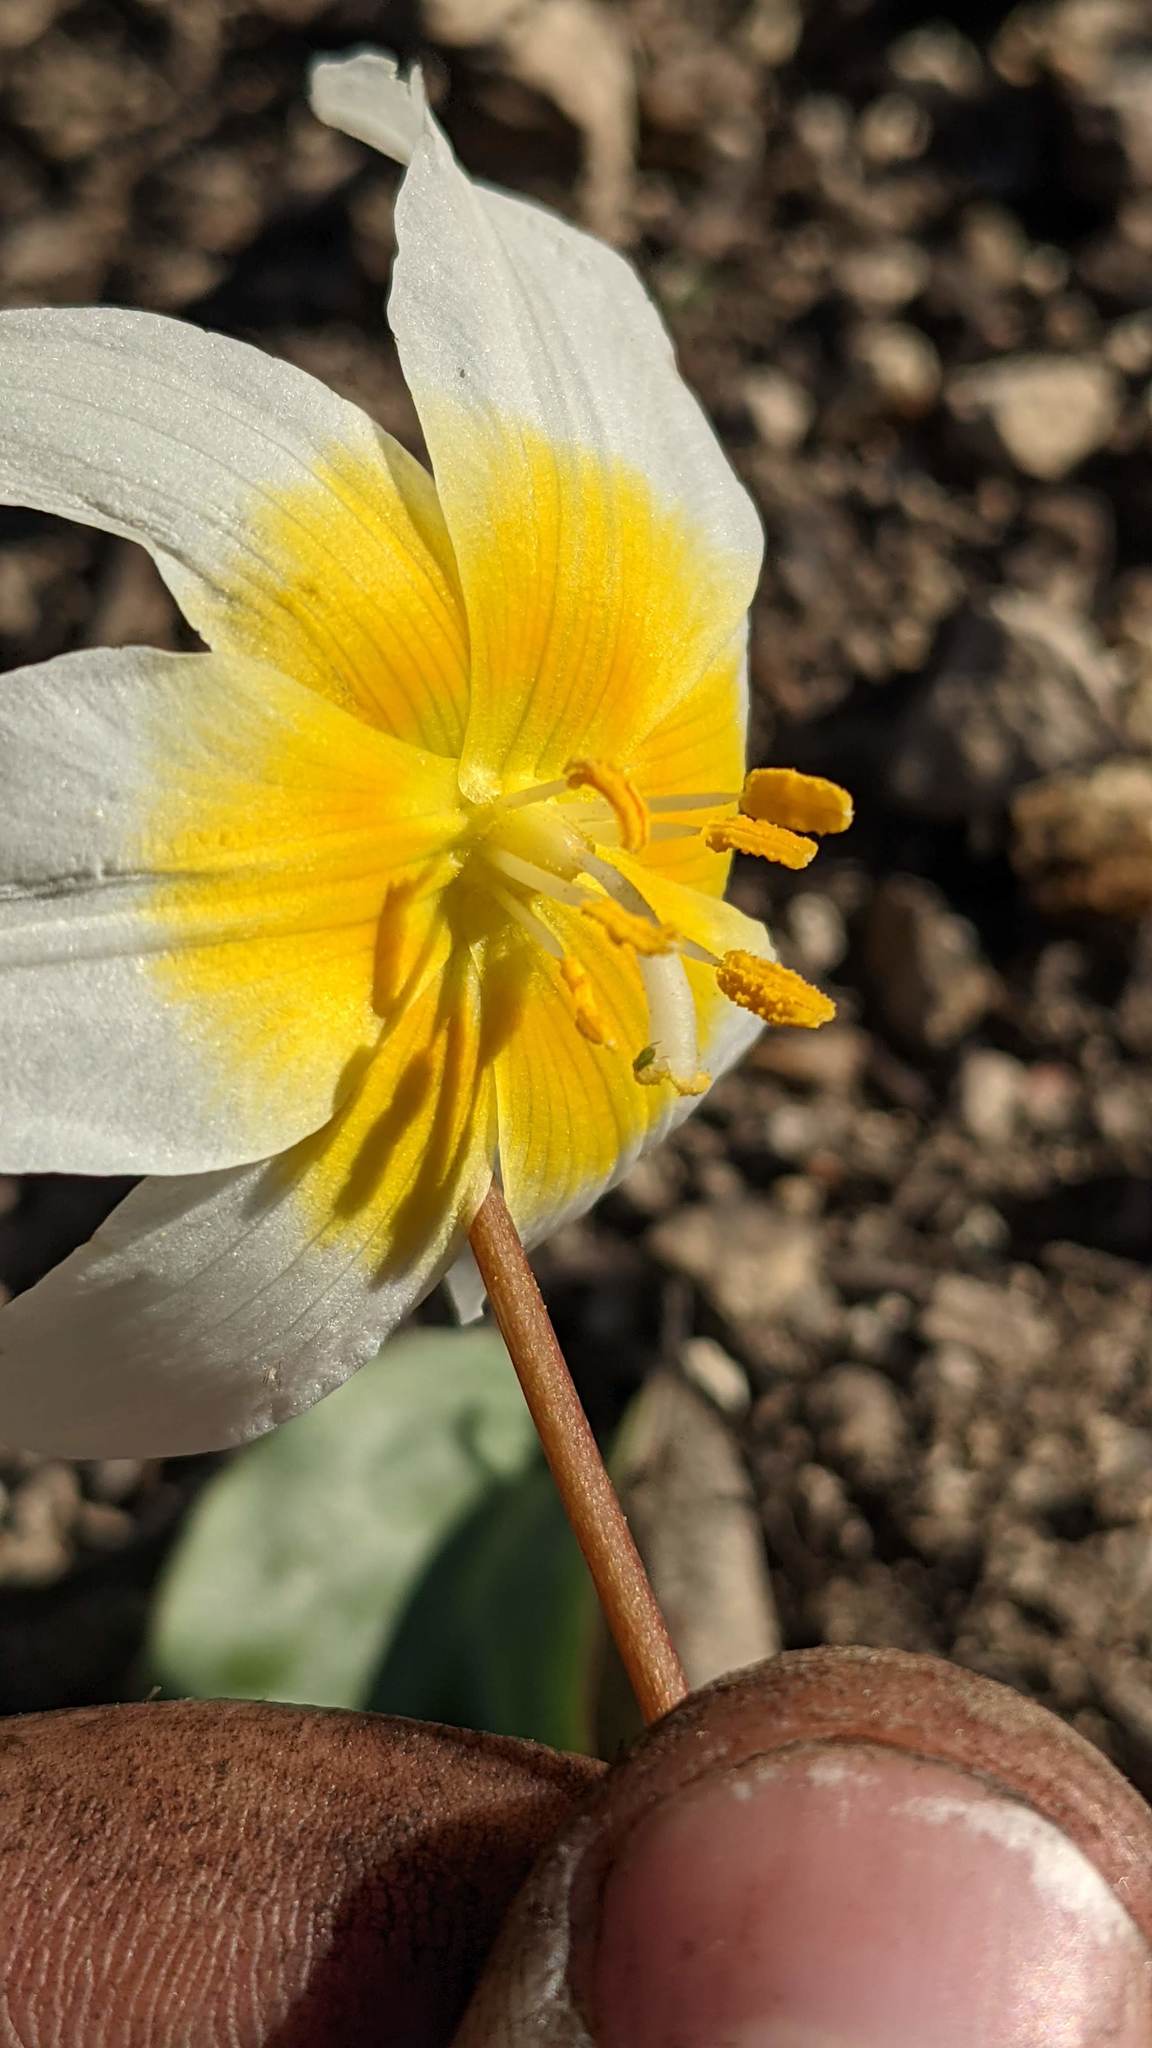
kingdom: Plantae
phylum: Tracheophyta
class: Liliopsida
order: Liliales
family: Liliaceae
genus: Erythronium
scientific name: Erythronium helenae
